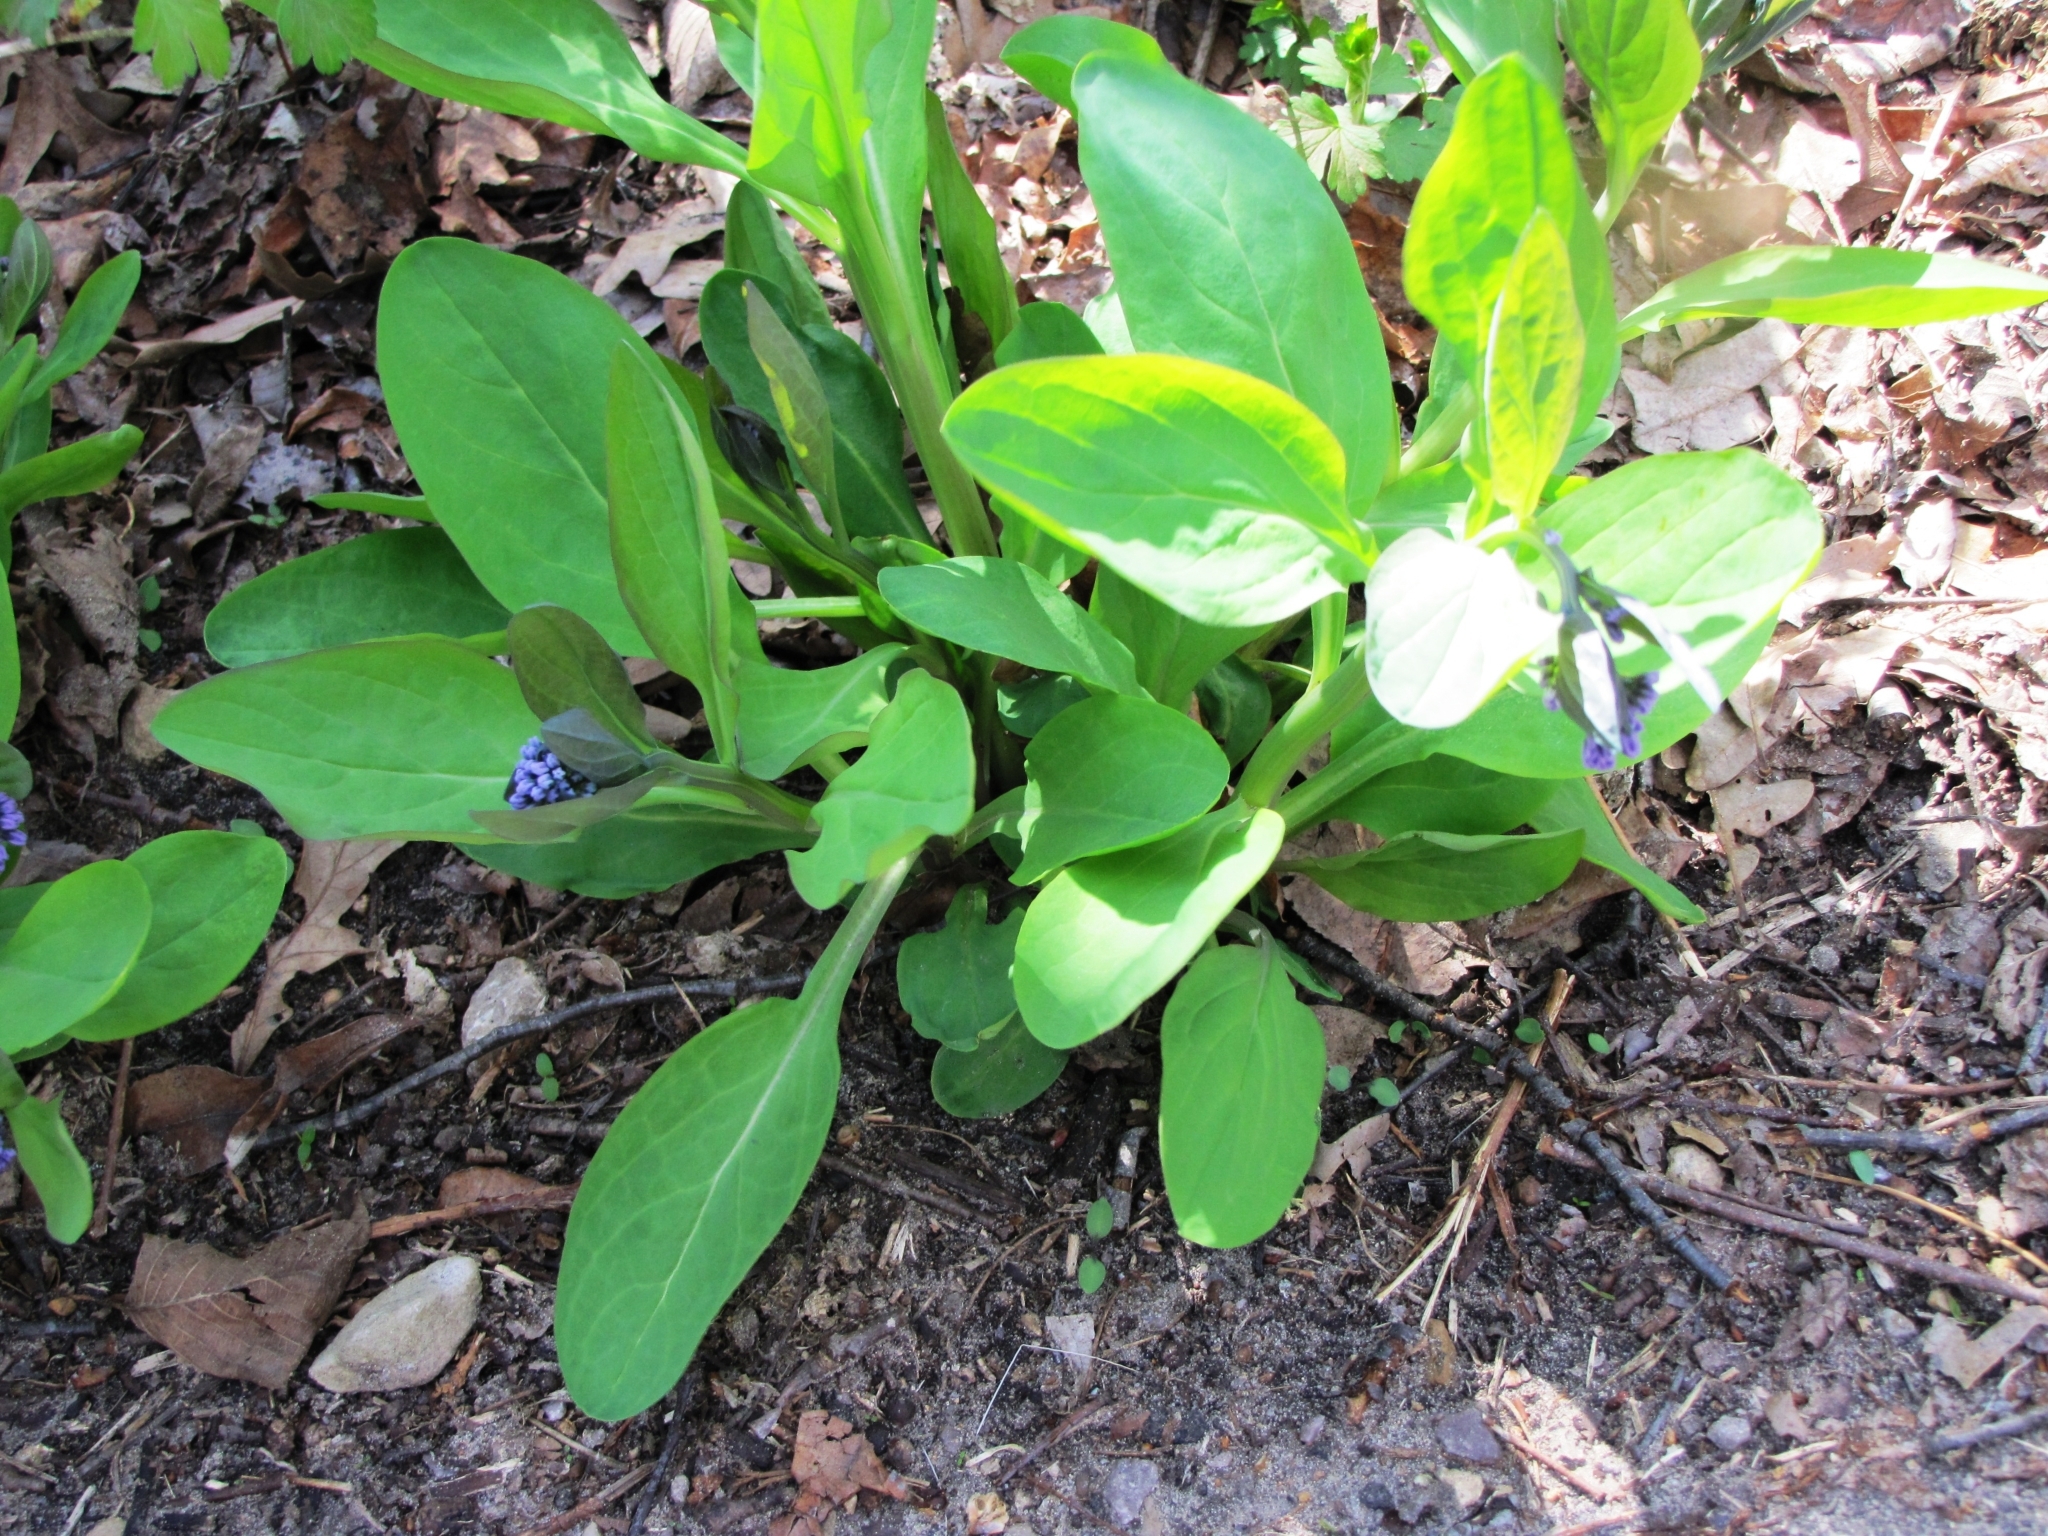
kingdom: Plantae
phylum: Tracheophyta
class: Magnoliopsida
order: Boraginales
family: Boraginaceae
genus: Mertensia
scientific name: Mertensia virginica
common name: Virginia bluebells
